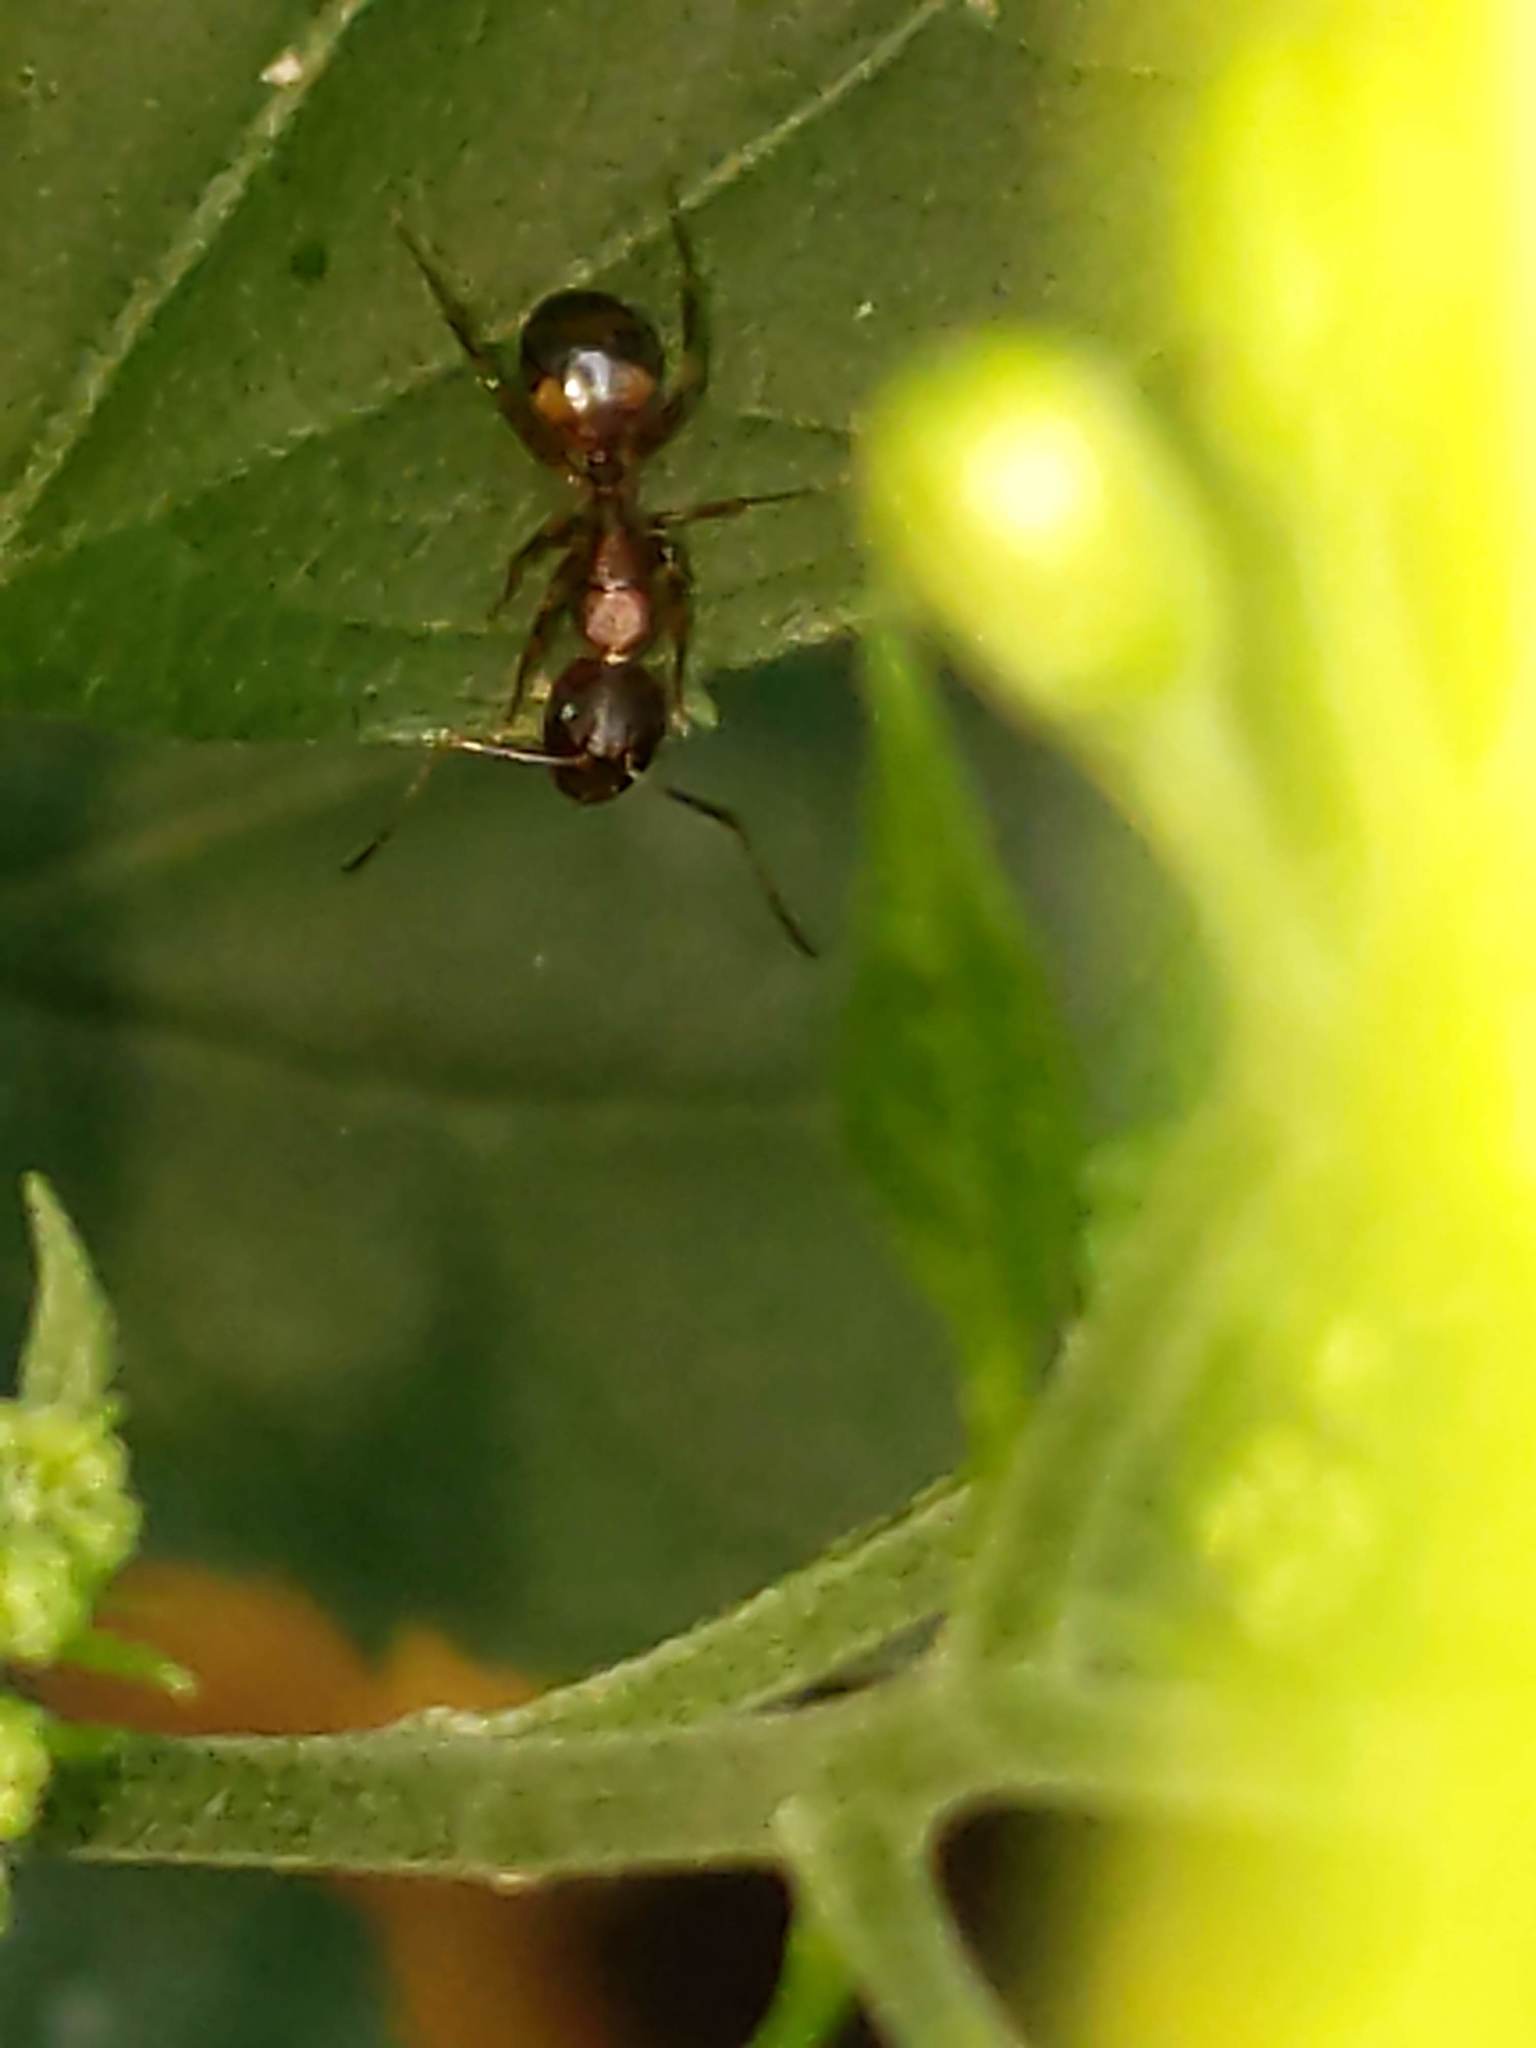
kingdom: Animalia
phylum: Arthropoda
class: Insecta
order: Hymenoptera
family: Formicidae
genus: Camponotus
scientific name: Camponotus subbarbatus
